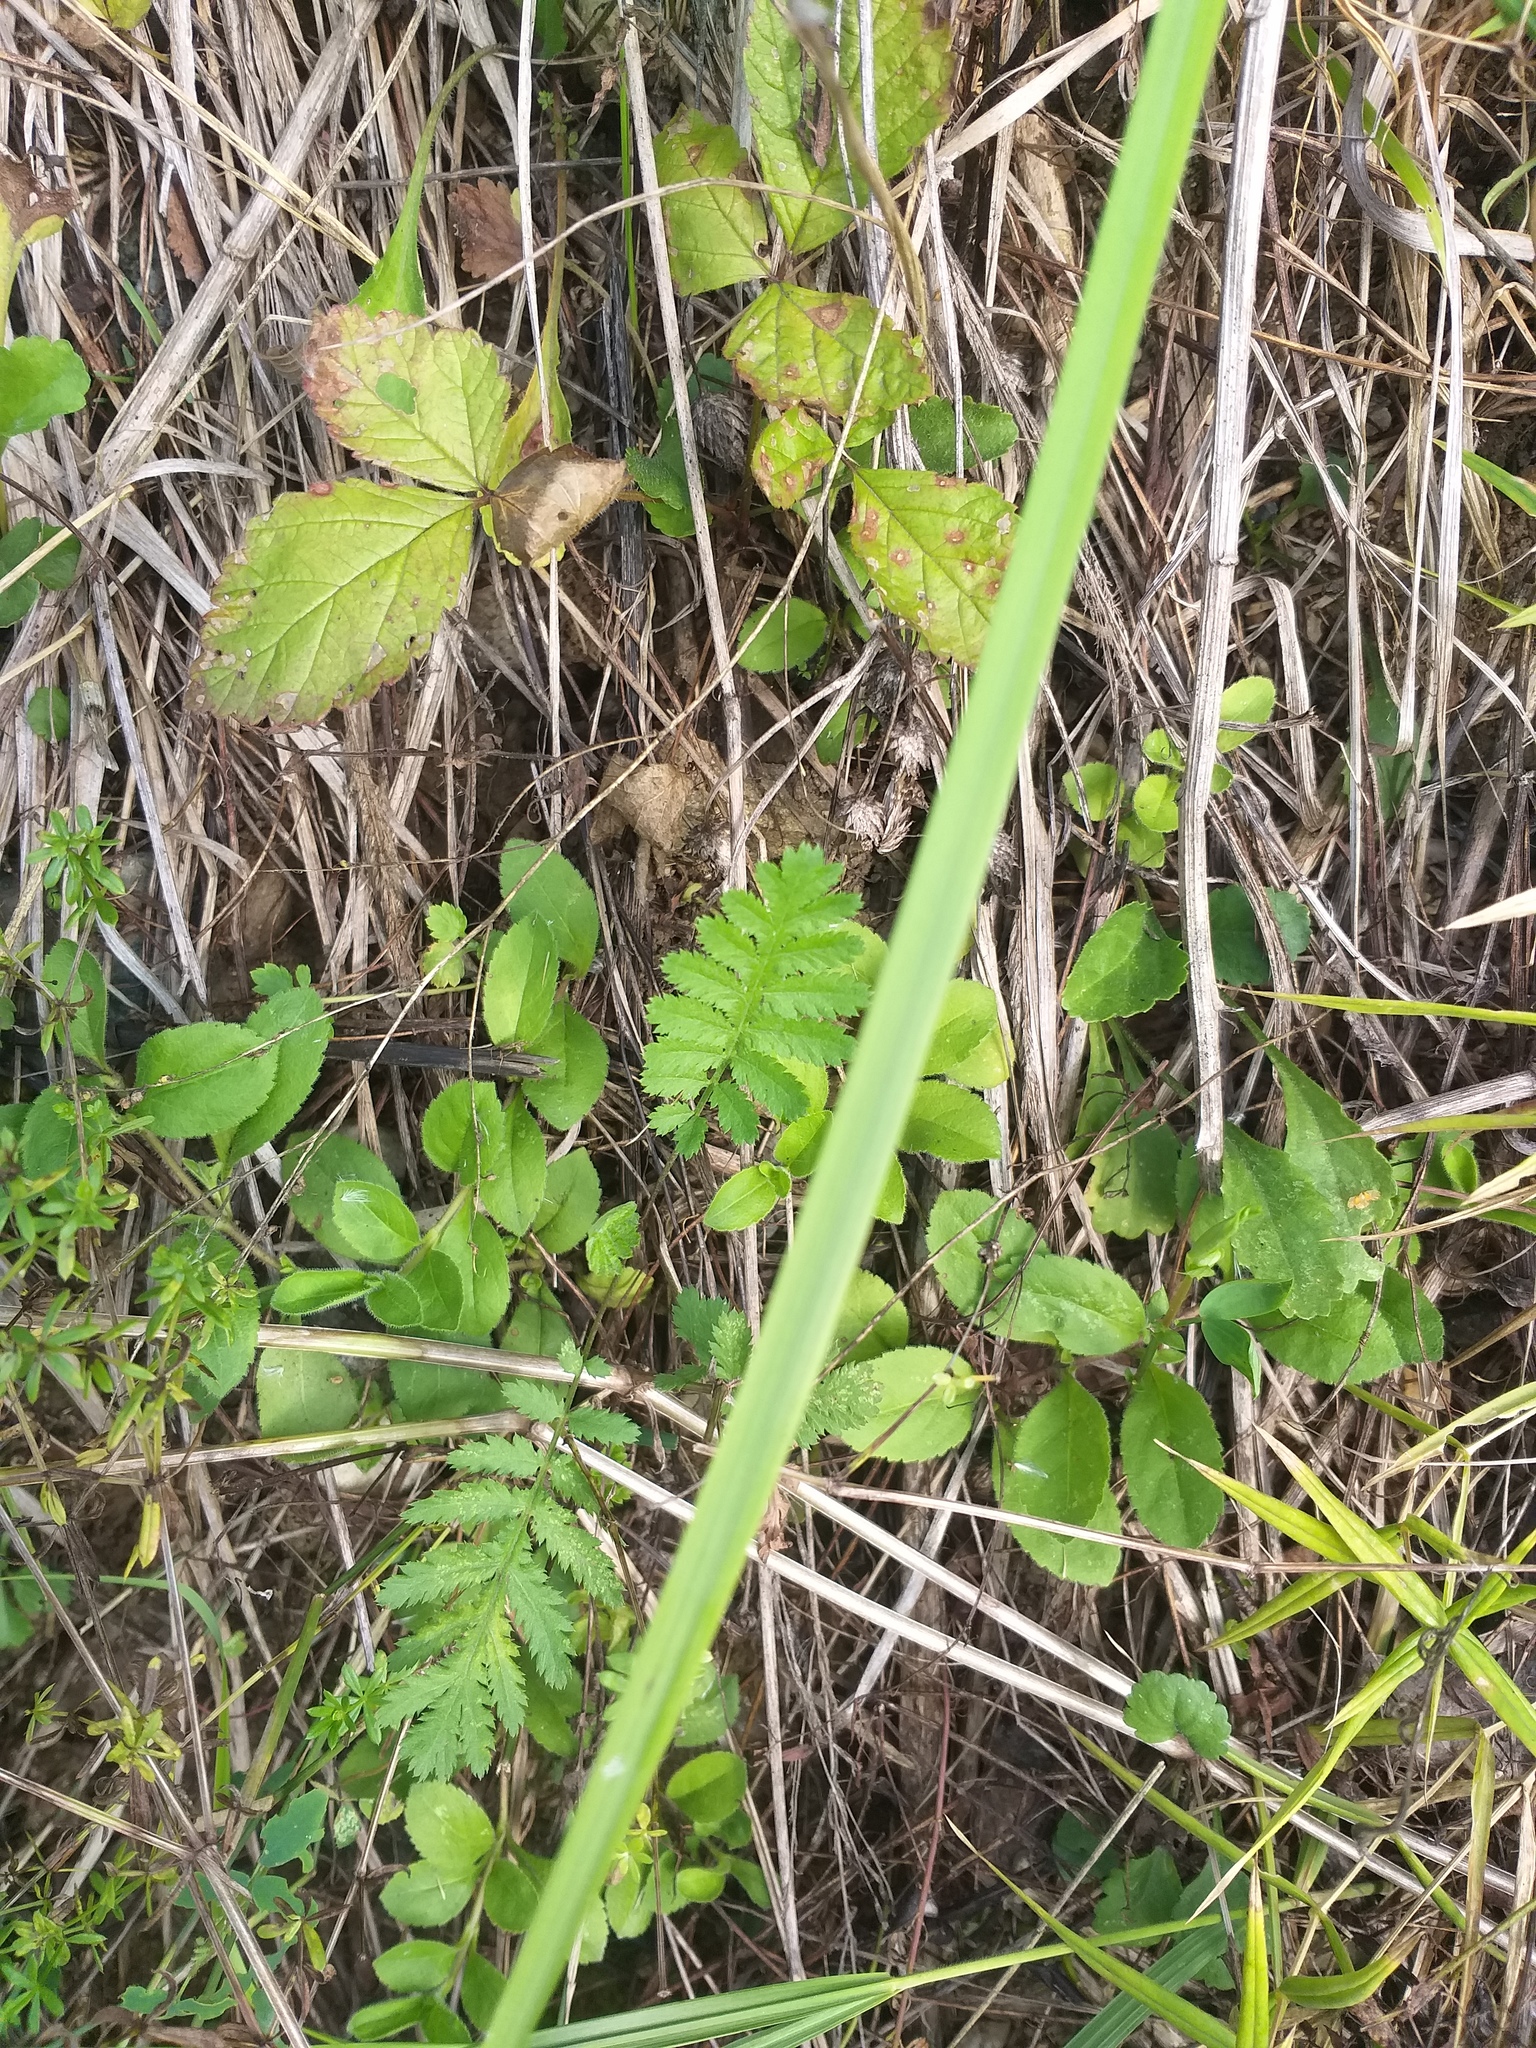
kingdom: Plantae
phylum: Tracheophyta
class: Magnoliopsida
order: Lamiales
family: Plantaginaceae
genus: Veronica
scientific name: Veronica officinalis
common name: Common speedwell
